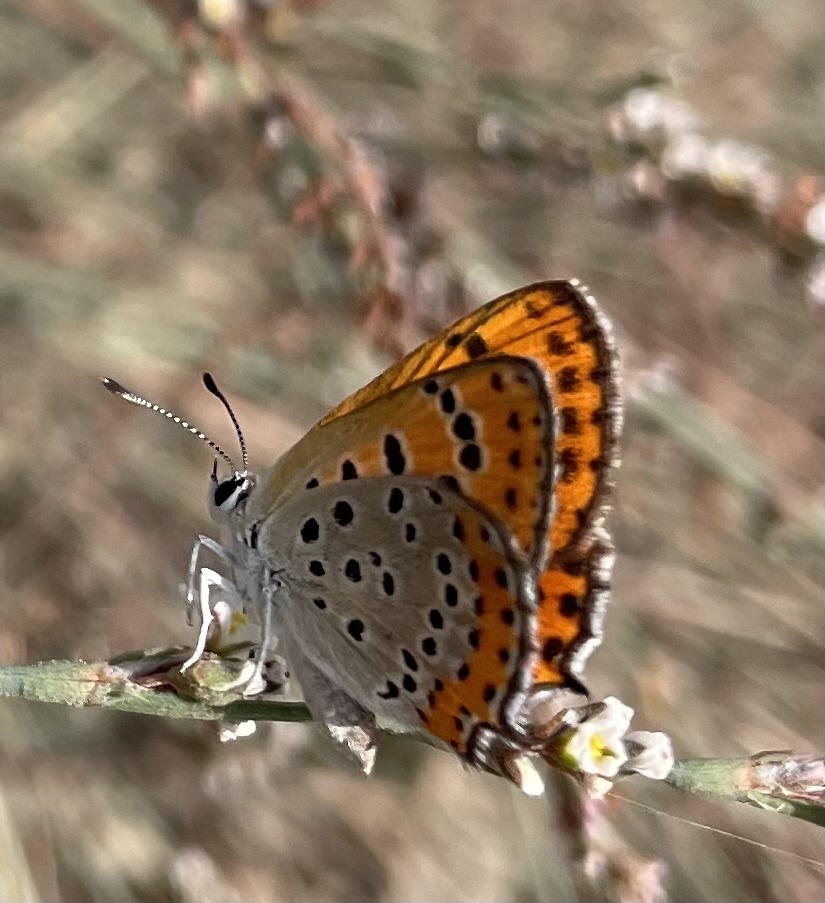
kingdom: Animalia
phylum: Arthropoda
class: Insecta
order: Lepidoptera
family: Lycaenidae
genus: Thersamonia
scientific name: Thersamonia thersamon
